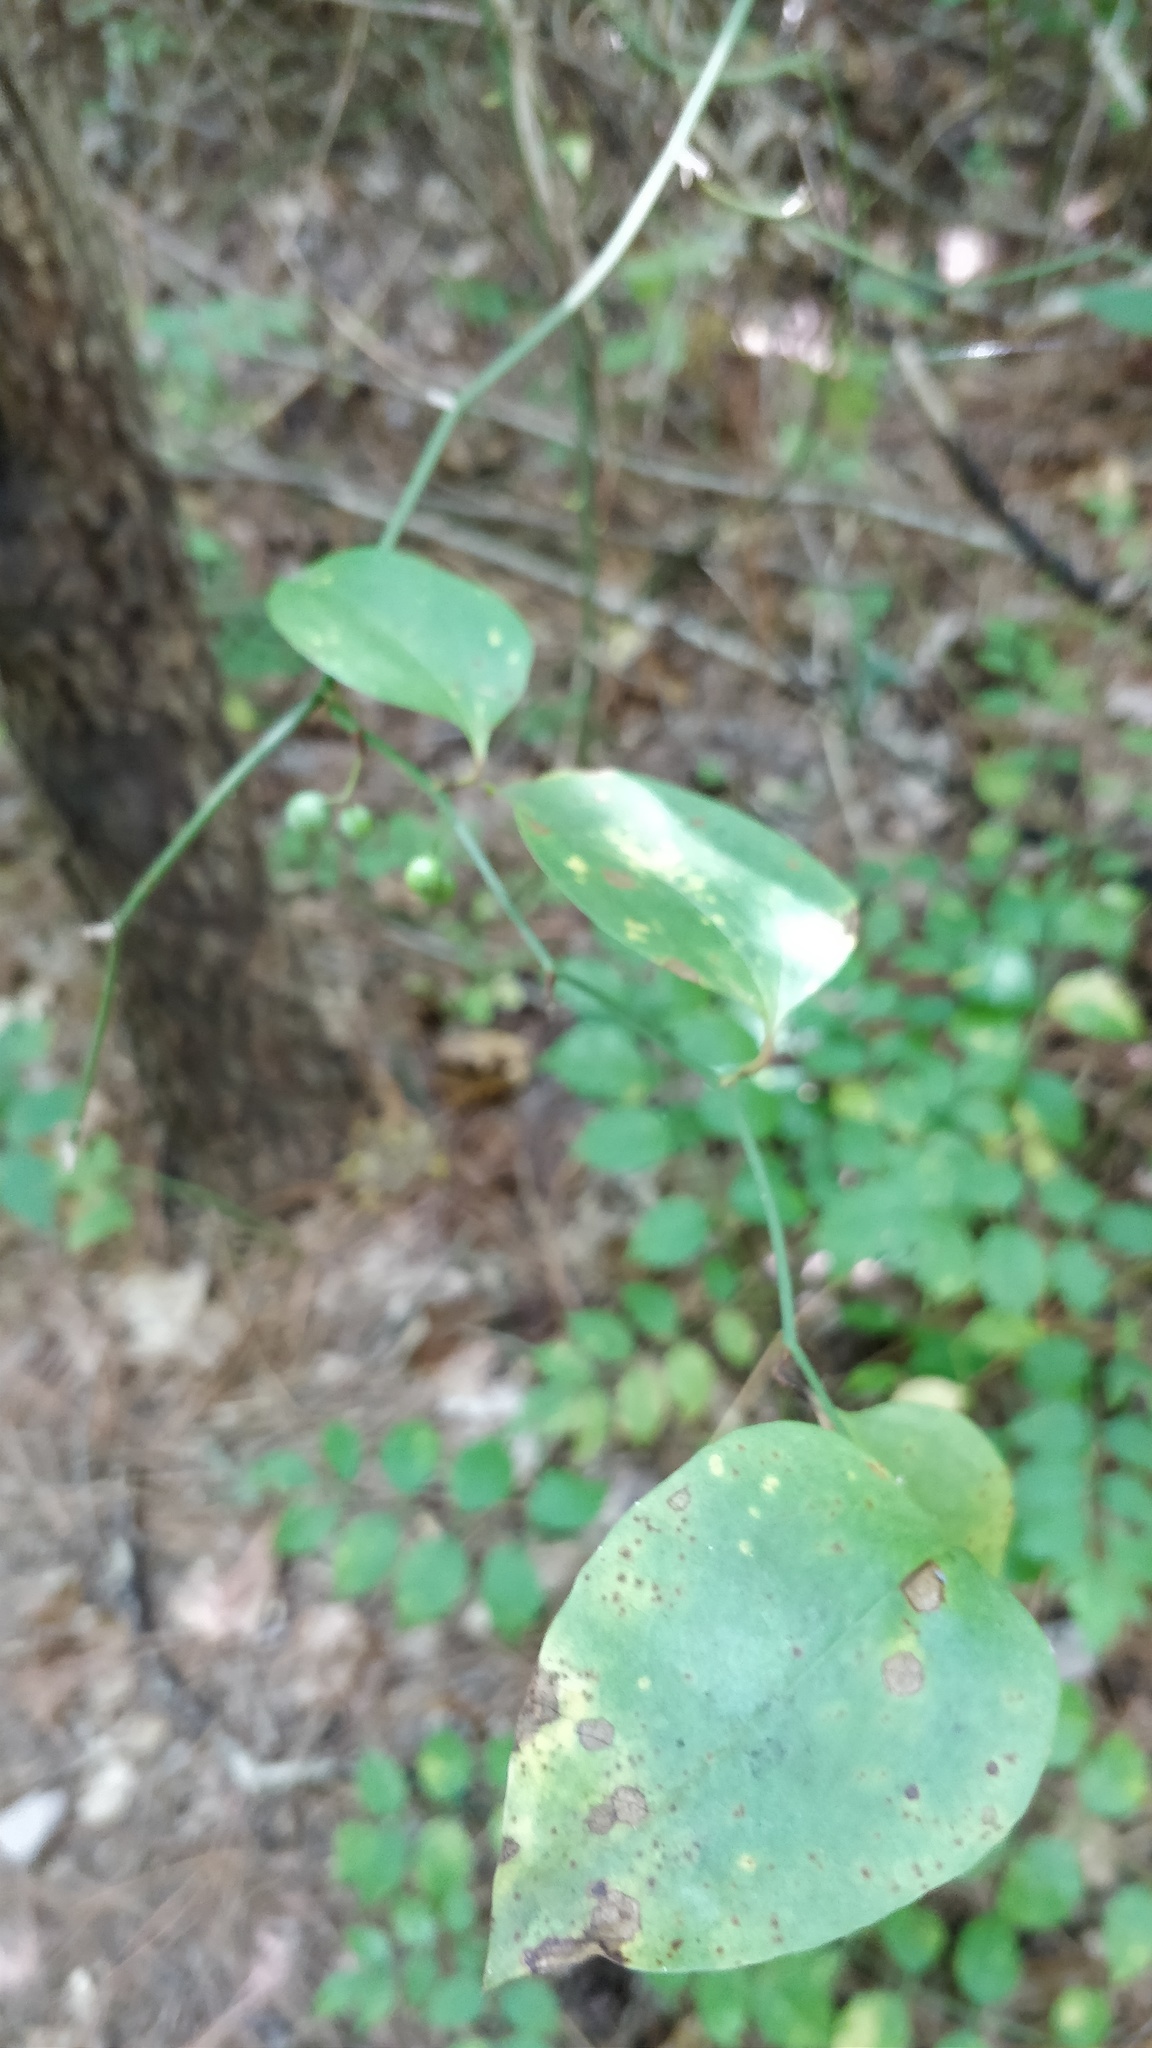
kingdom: Plantae
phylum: Tracheophyta
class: Liliopsida
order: Liliales
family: Smilacaceae
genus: Smilax
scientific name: Smilax rotundifolia
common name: Bullbriar
